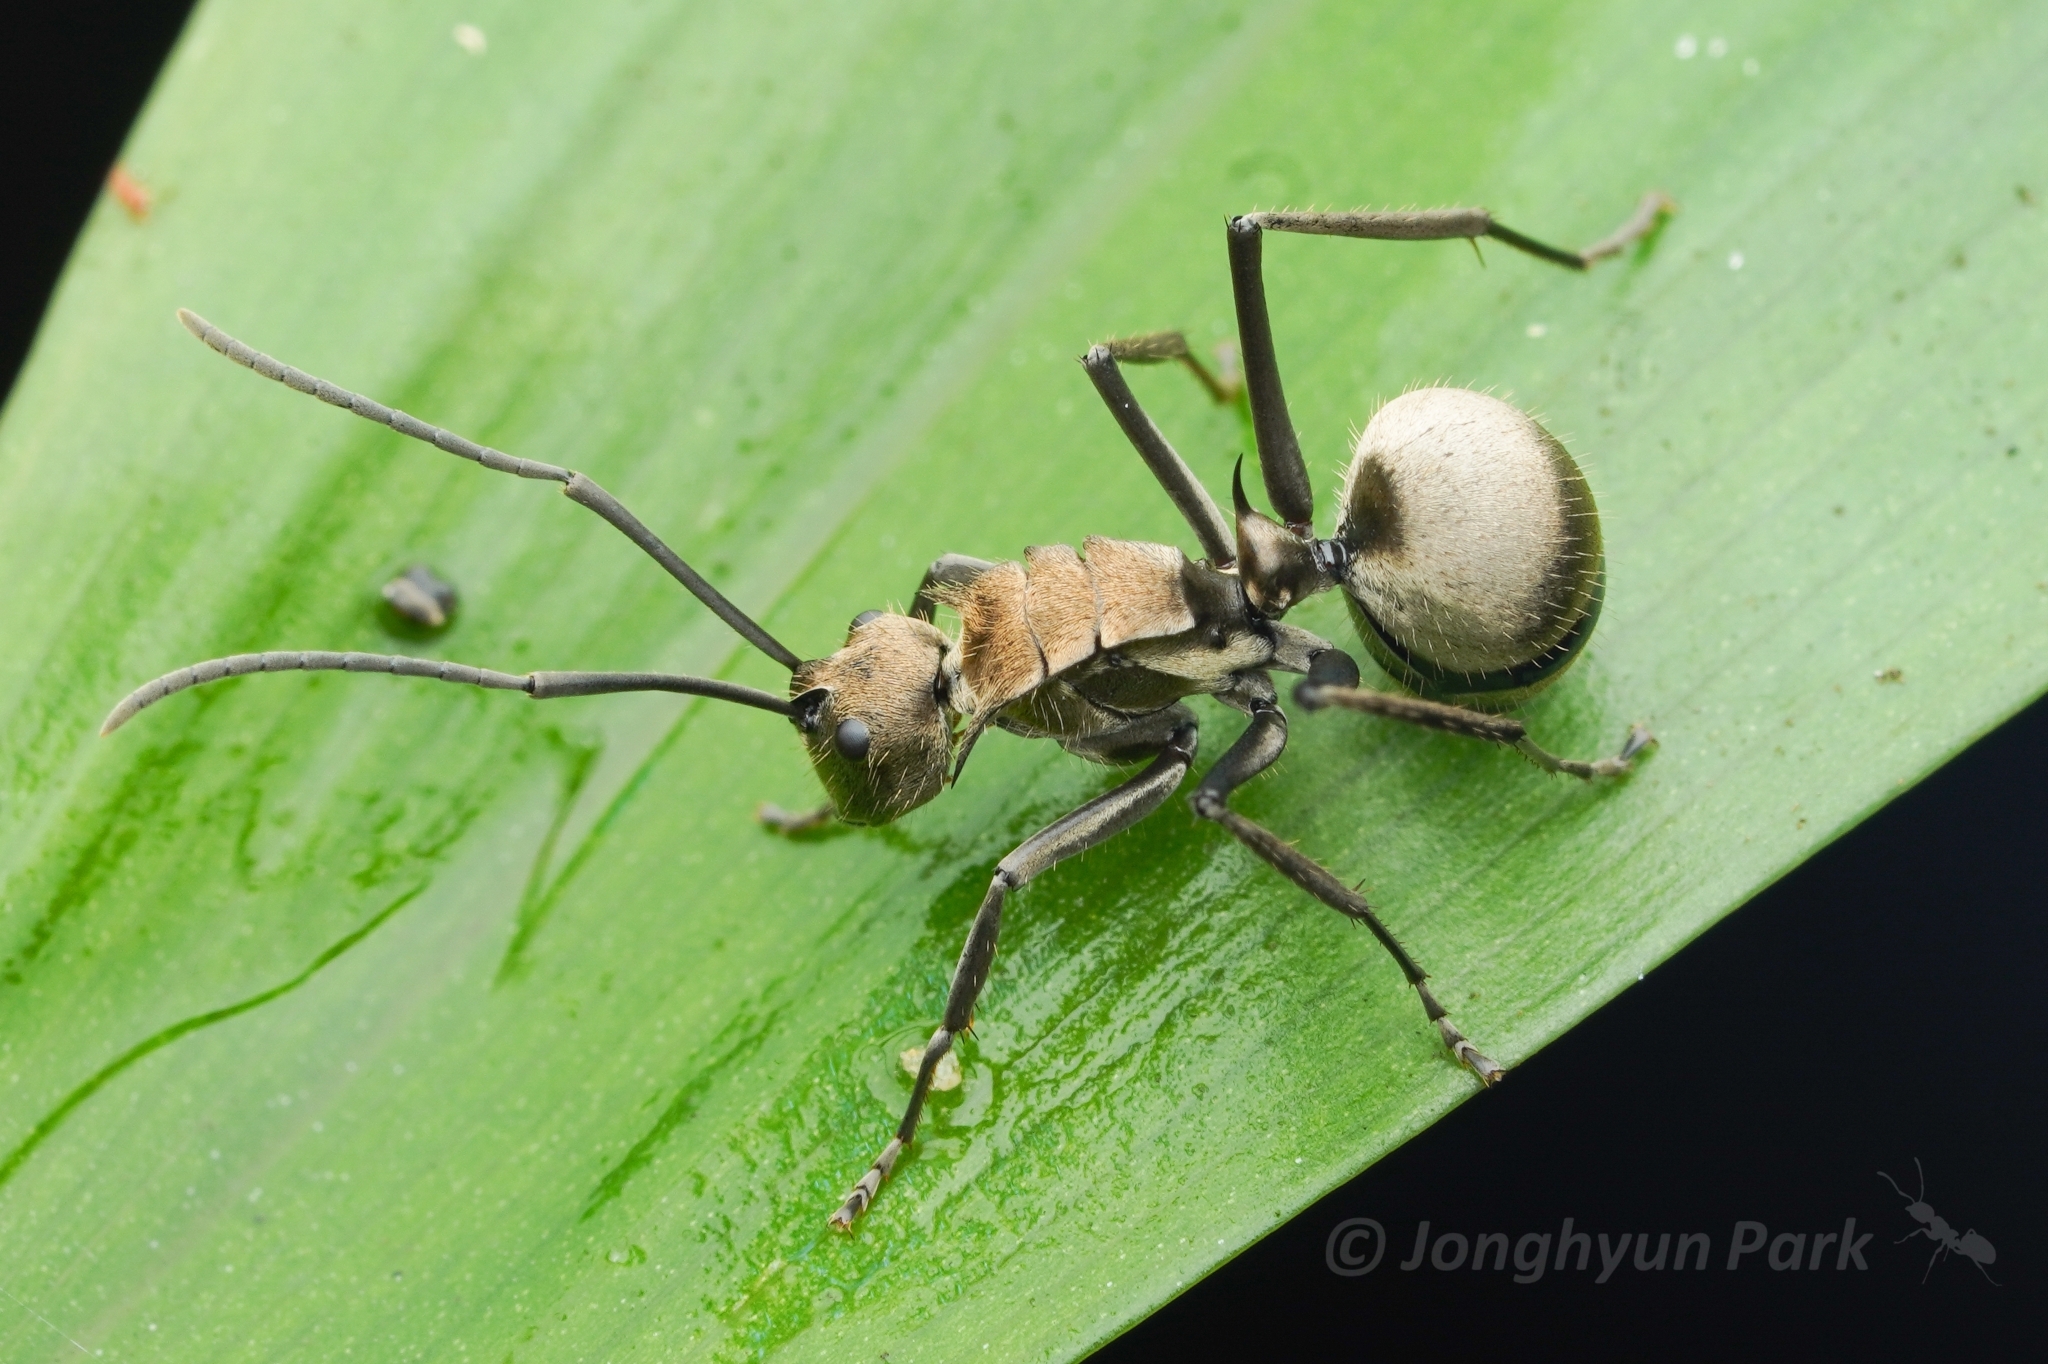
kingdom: Animalia
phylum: Arthropoda
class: Insecta
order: Hymenoptera
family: Formicidae
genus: Polyrhachis
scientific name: Polyrhachis proxima
